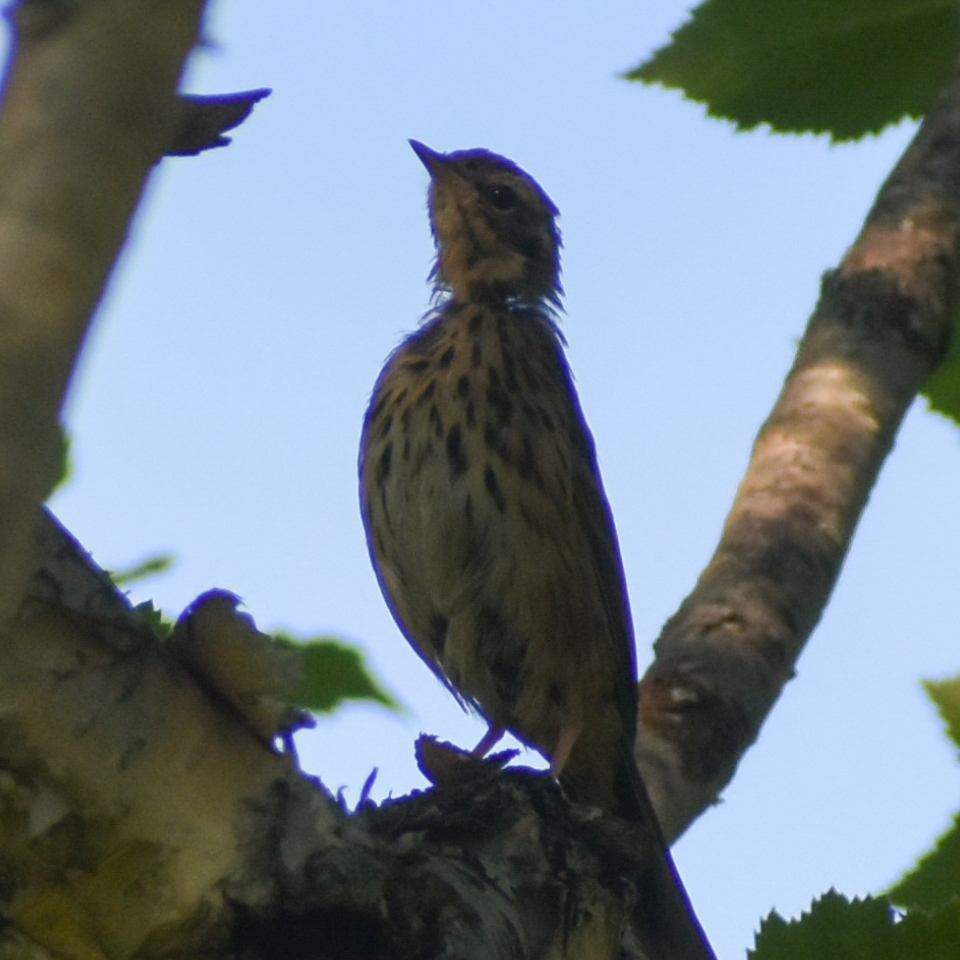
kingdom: Animalia
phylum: Chordata
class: Aves
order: Passeriformes
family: Motacillidae
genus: Anthus
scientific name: Anthus hodgsoni
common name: Olive-backed pipit
